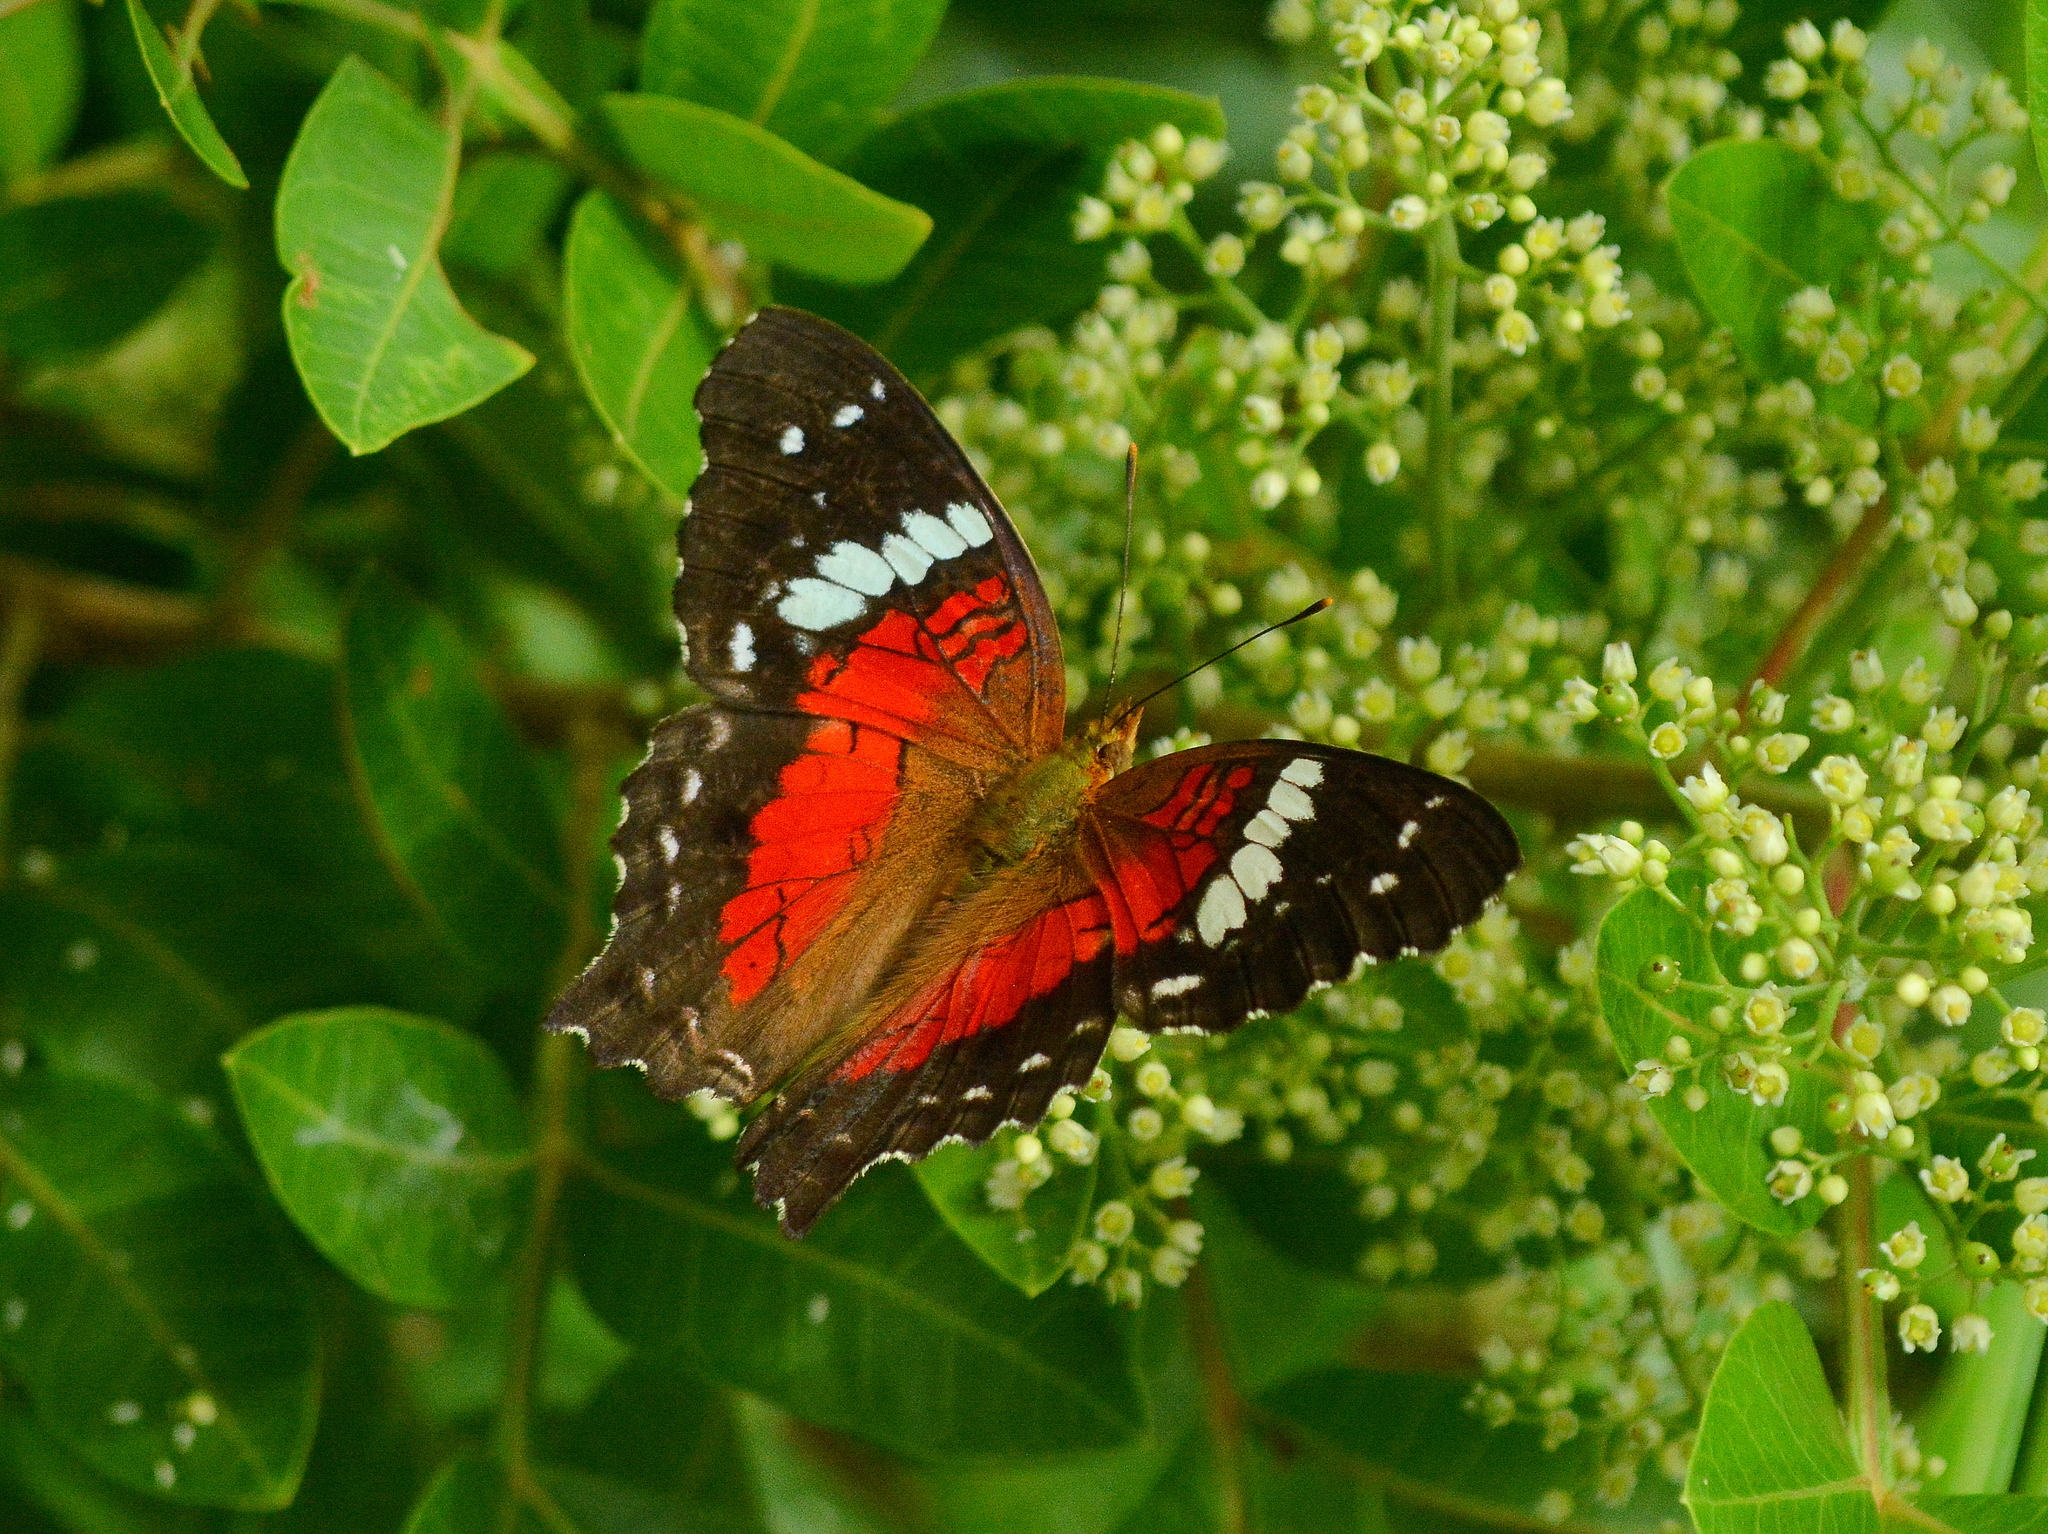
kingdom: Animalia
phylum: Arthropoda
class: Insecta
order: Lepidoptera
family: Nymphalidae
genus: Anartia
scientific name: Anartia amathea
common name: Red peacock
